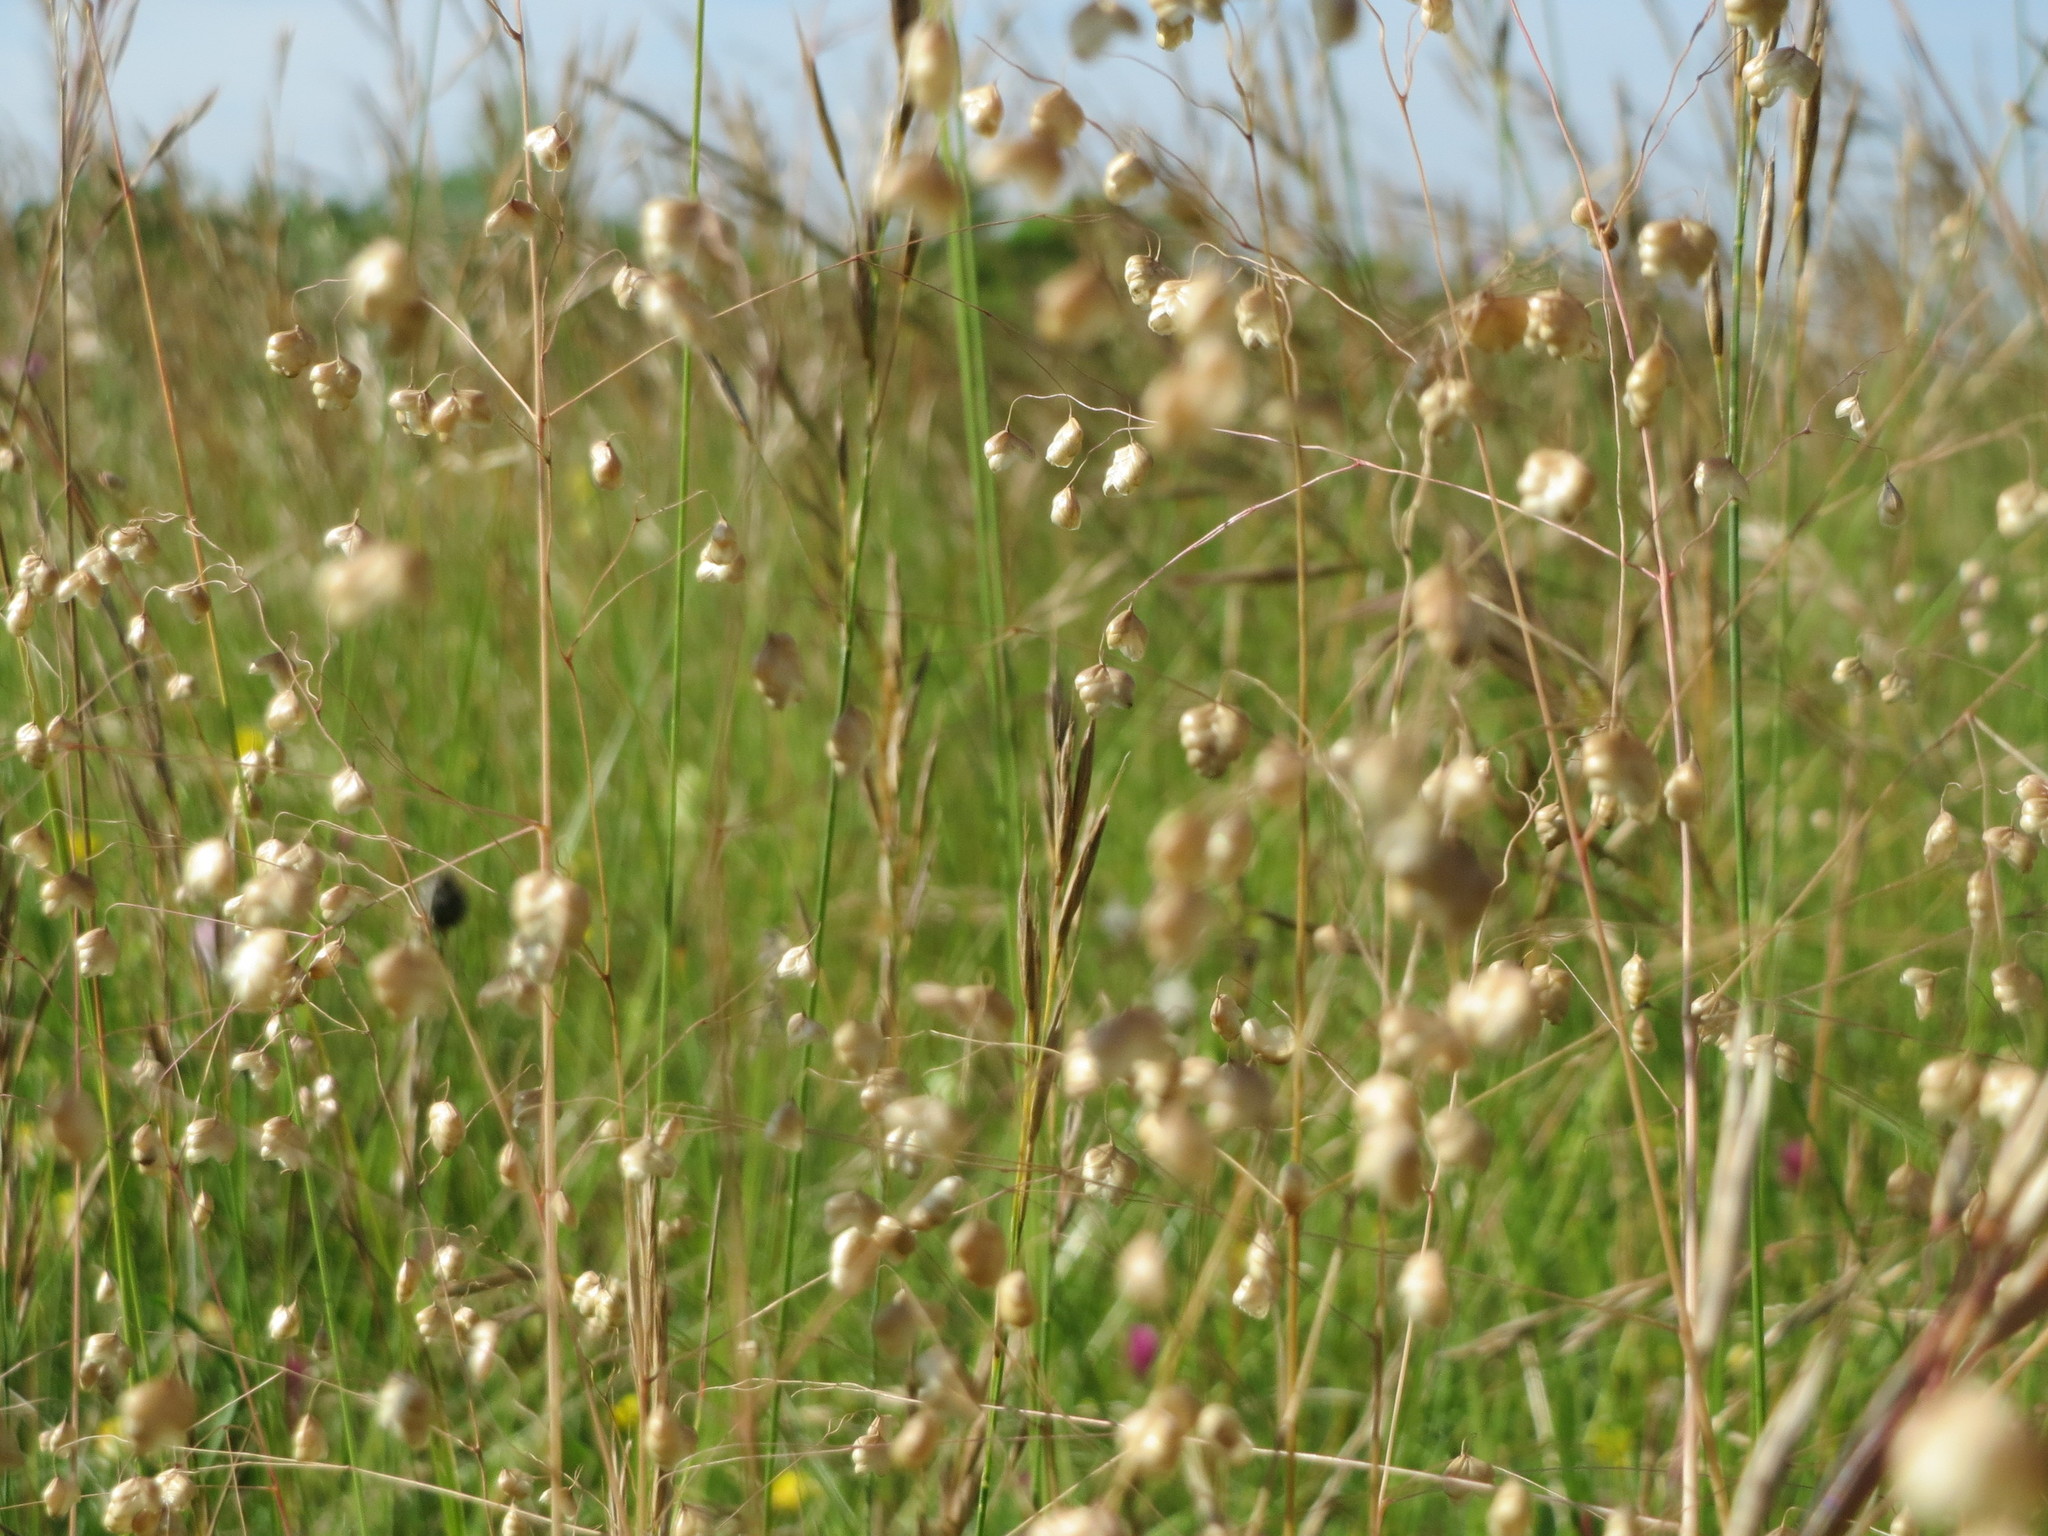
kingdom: Plantae
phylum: Tracheophyta
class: Liliopsida
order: Poales
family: Poaceae
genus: Briza
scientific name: Briza media
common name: Quaking grass
